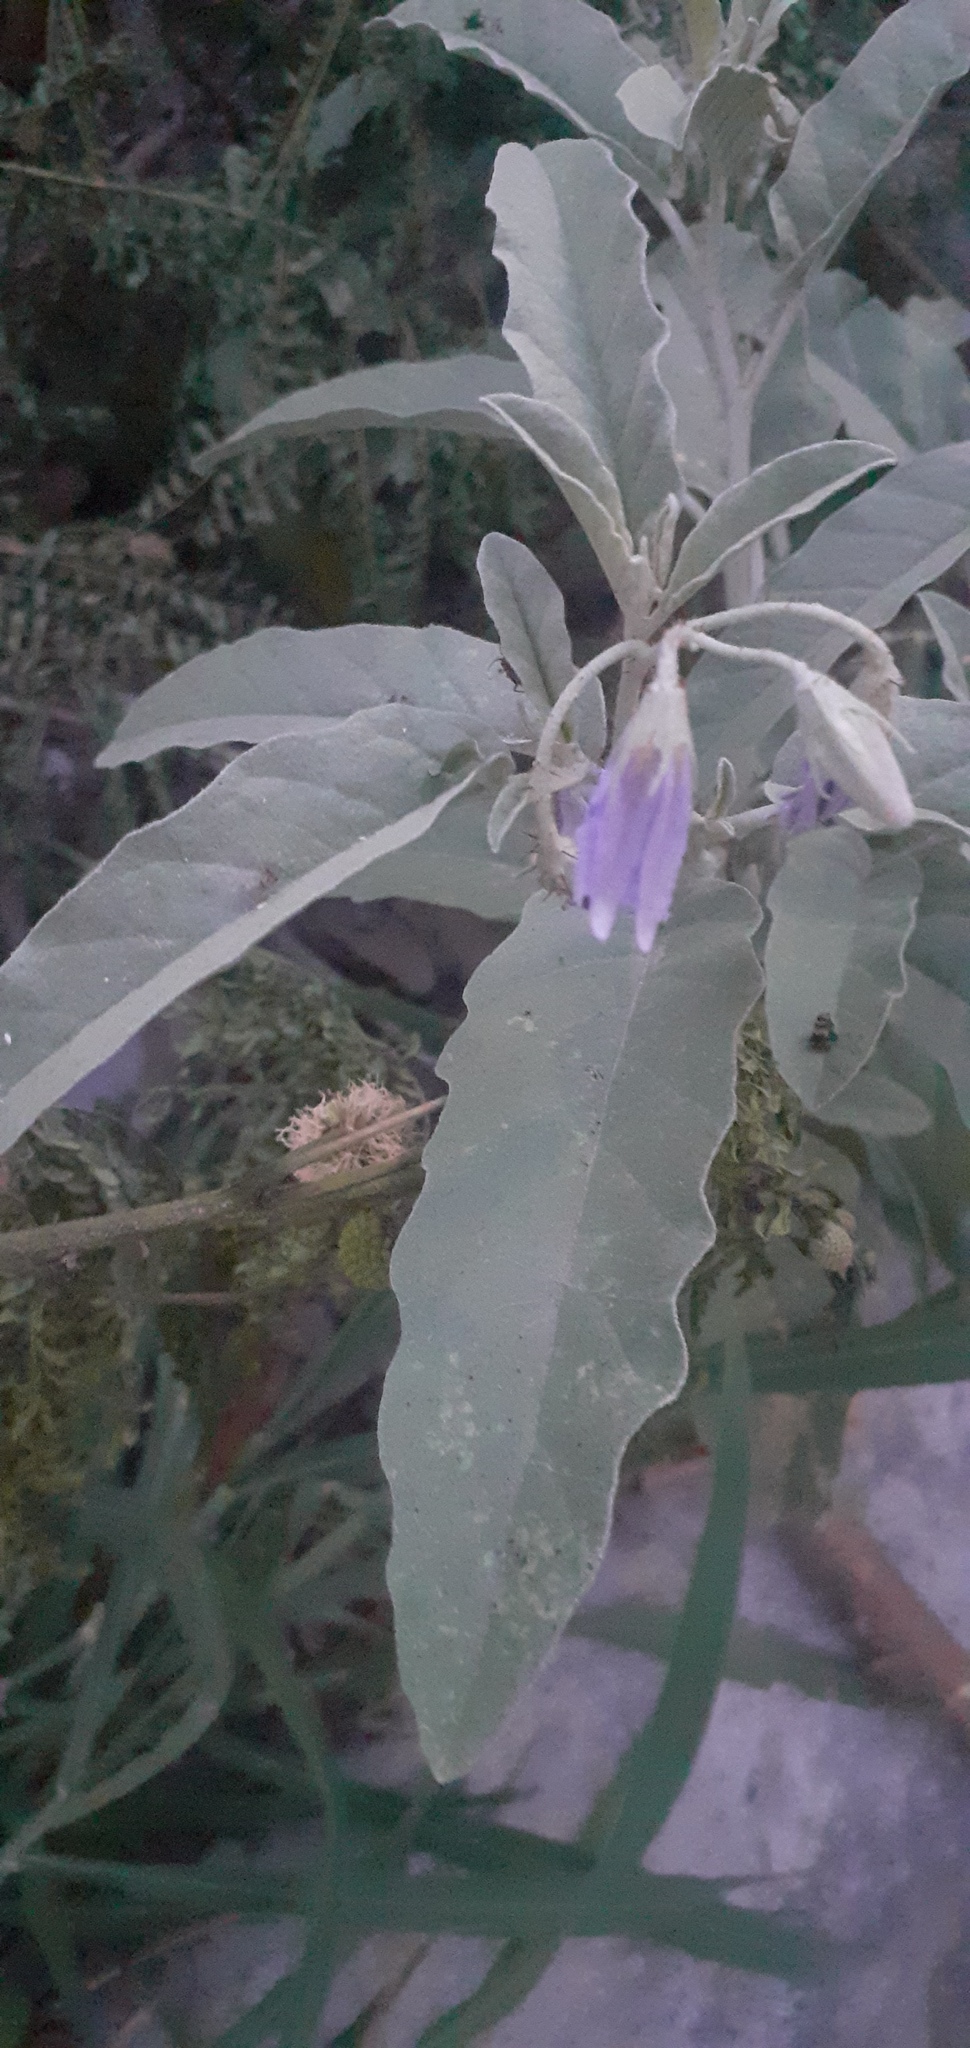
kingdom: Plantae
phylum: Tracheophyta
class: Magnoliopsida
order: Solanales
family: Solanaceae
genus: Solanum
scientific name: Solanum elaeagnifolium
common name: Silverleaf nightshade
